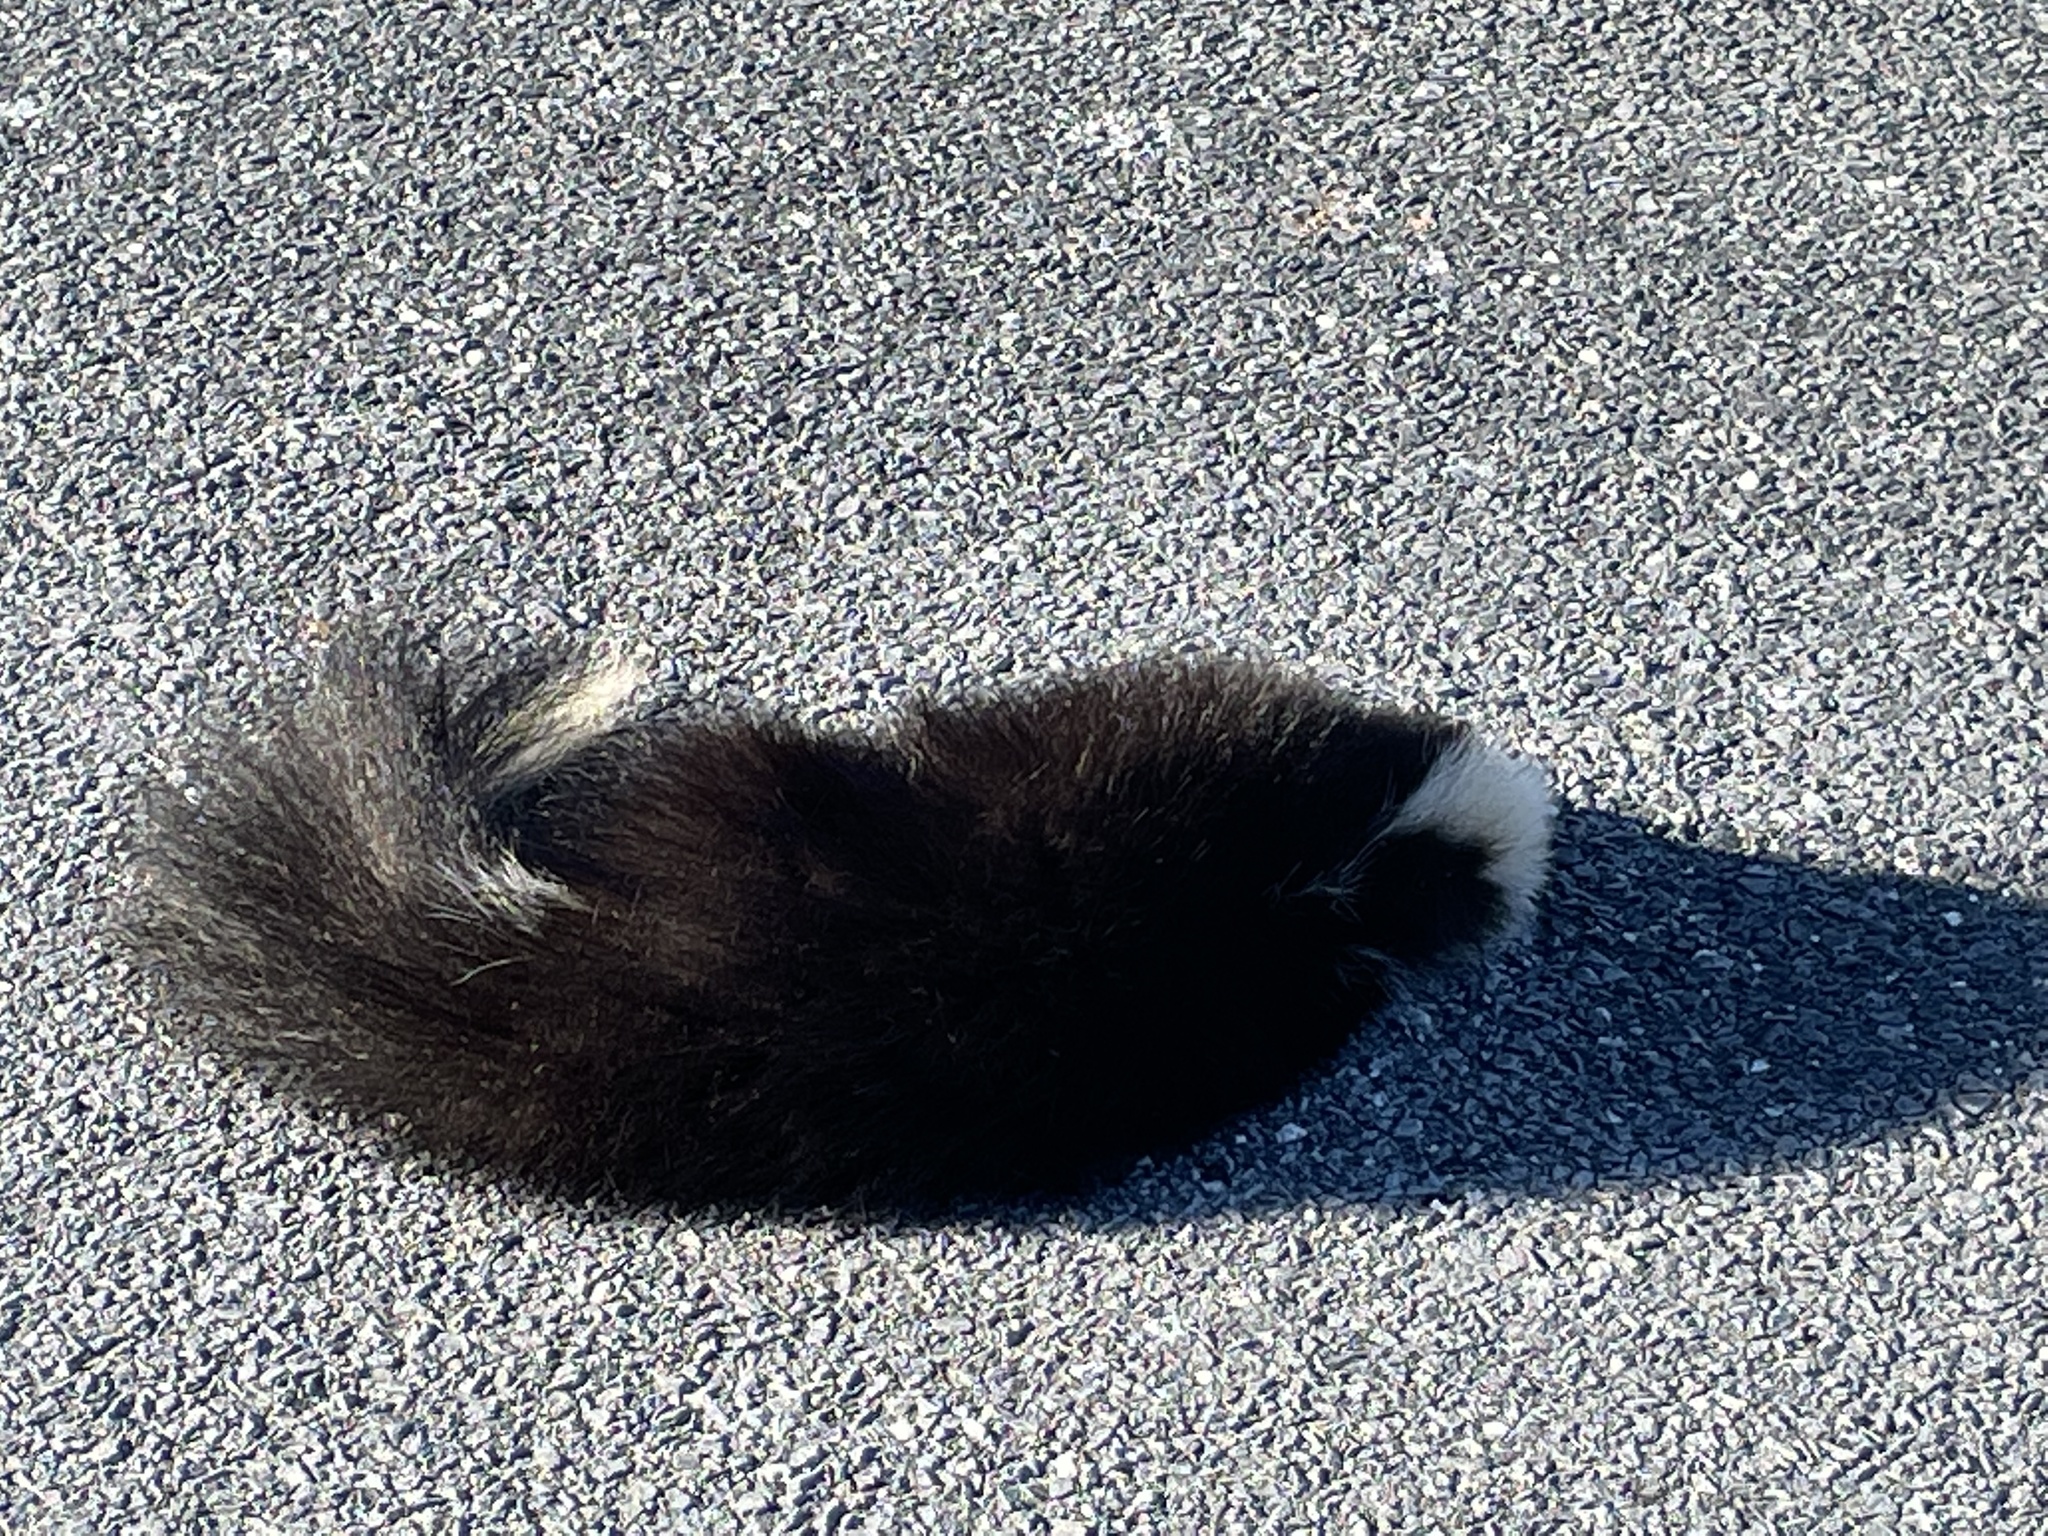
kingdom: Animalia
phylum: Chordata
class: Mammalia
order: Carnivora
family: Mephitidae
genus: Mephitis
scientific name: Mephitis mephitis
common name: Striped skunk
